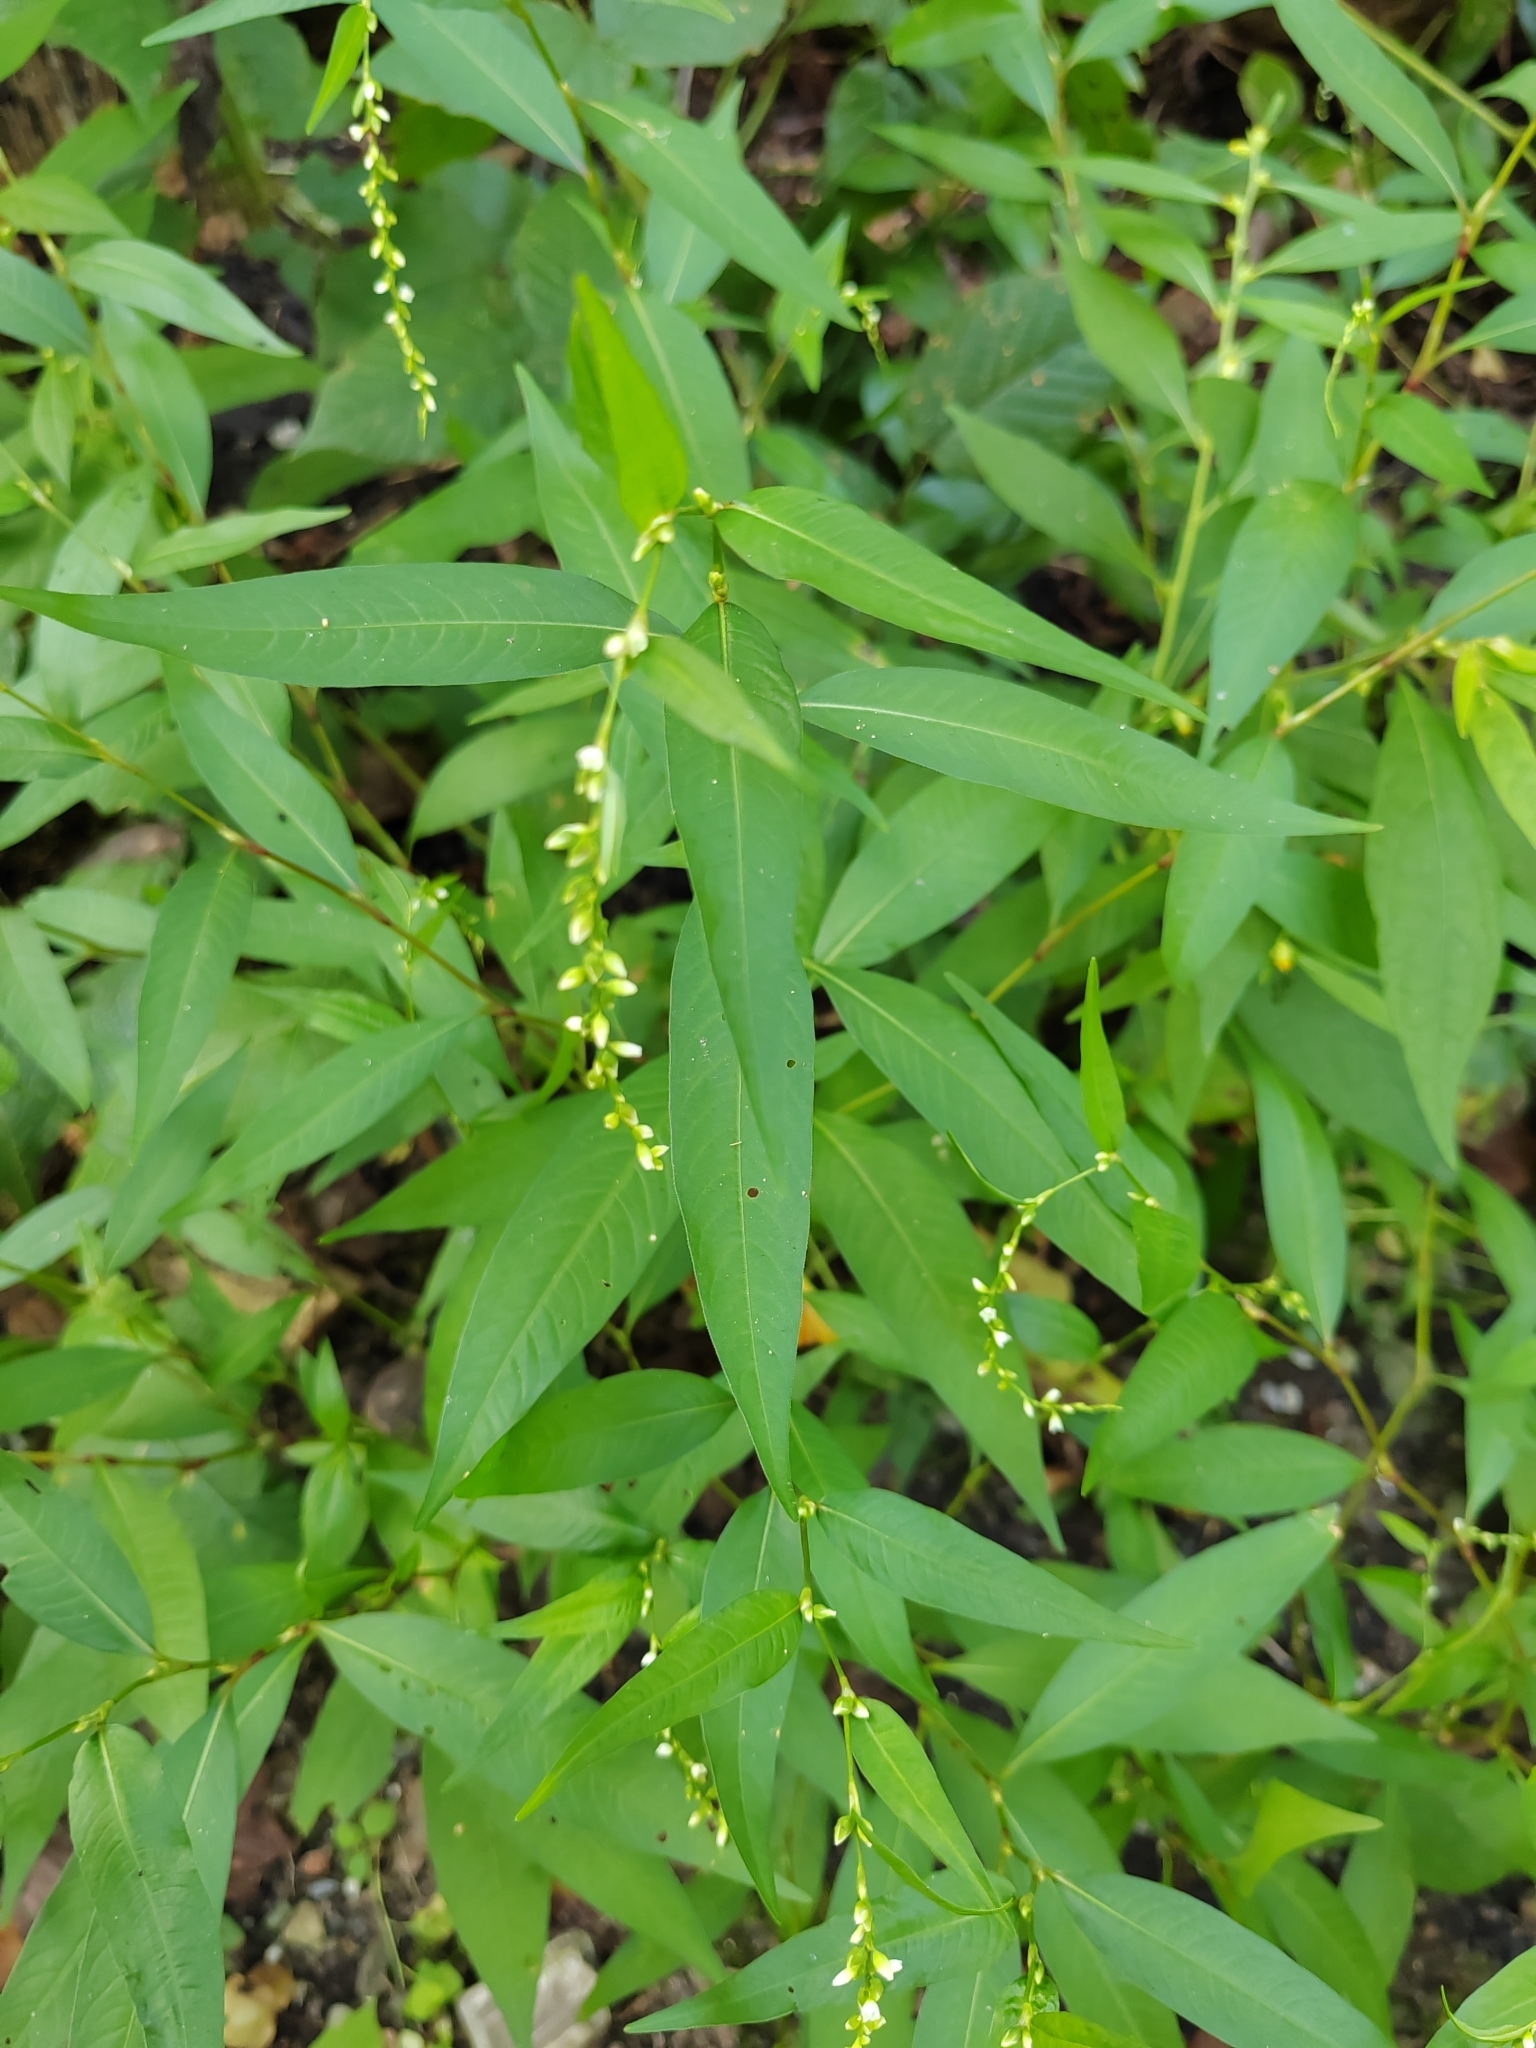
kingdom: Plantae
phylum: Tracheophyta
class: Magnoliopsida
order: Caryophyllales
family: Polygonaceae
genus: Persicaria
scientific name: Persicaria hydropiper
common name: Water-pepper
